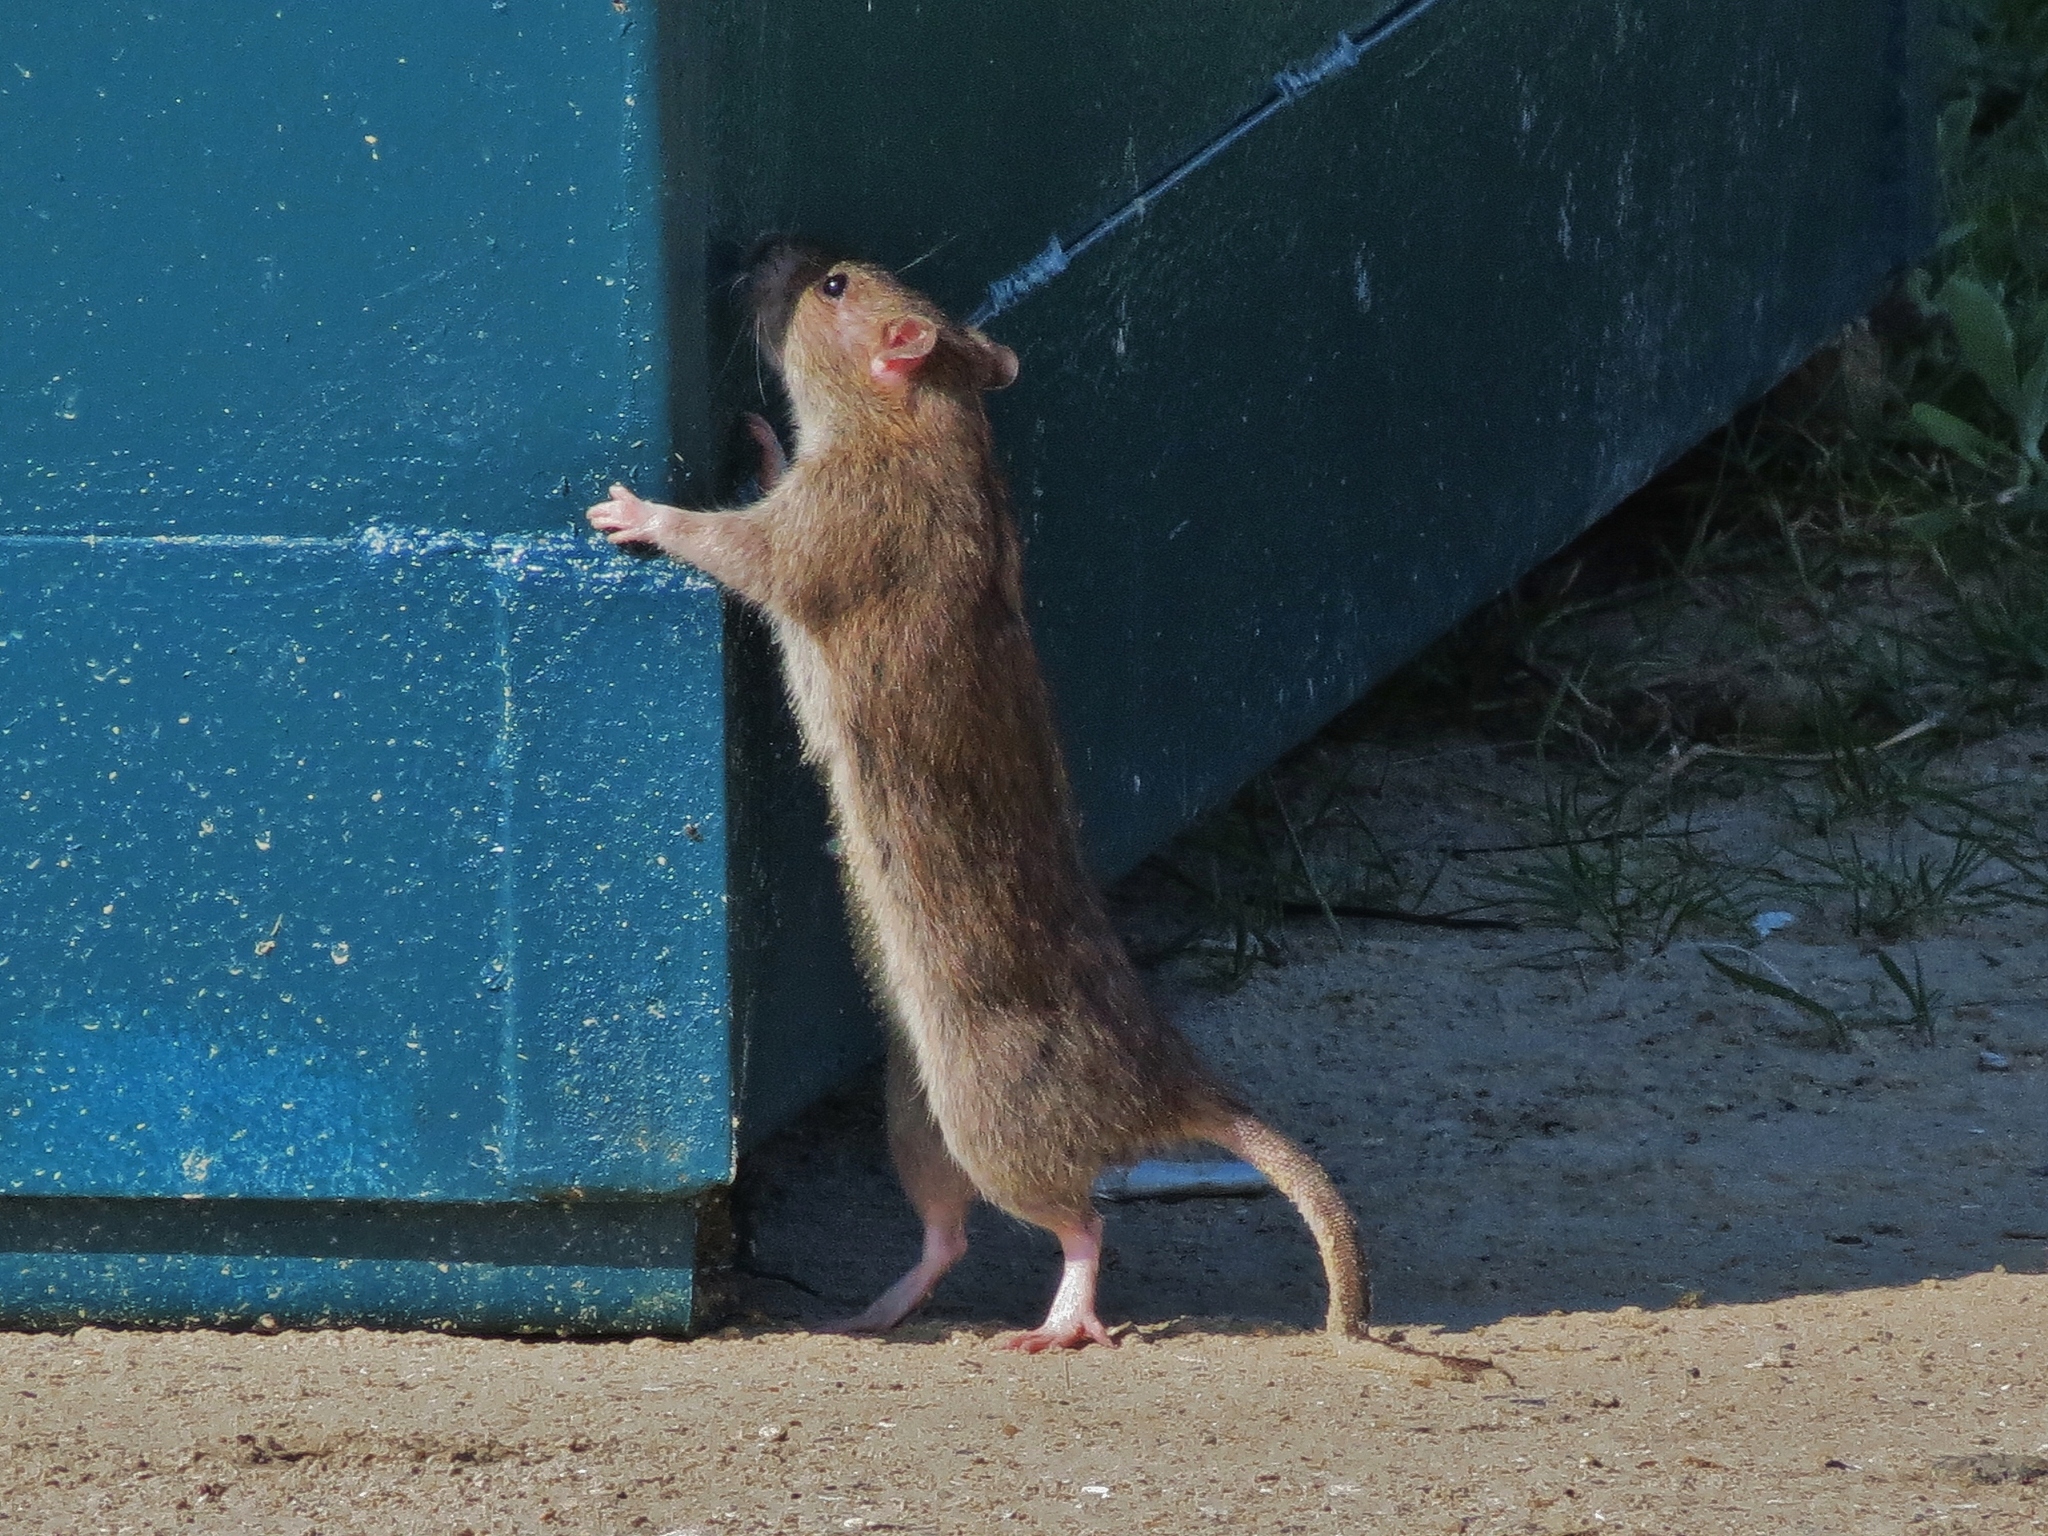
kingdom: Animalia
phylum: Chordata
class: Mammalia
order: Rodentia
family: Muridae
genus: Rattus
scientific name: Rattus norvegicus
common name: Brown rat
